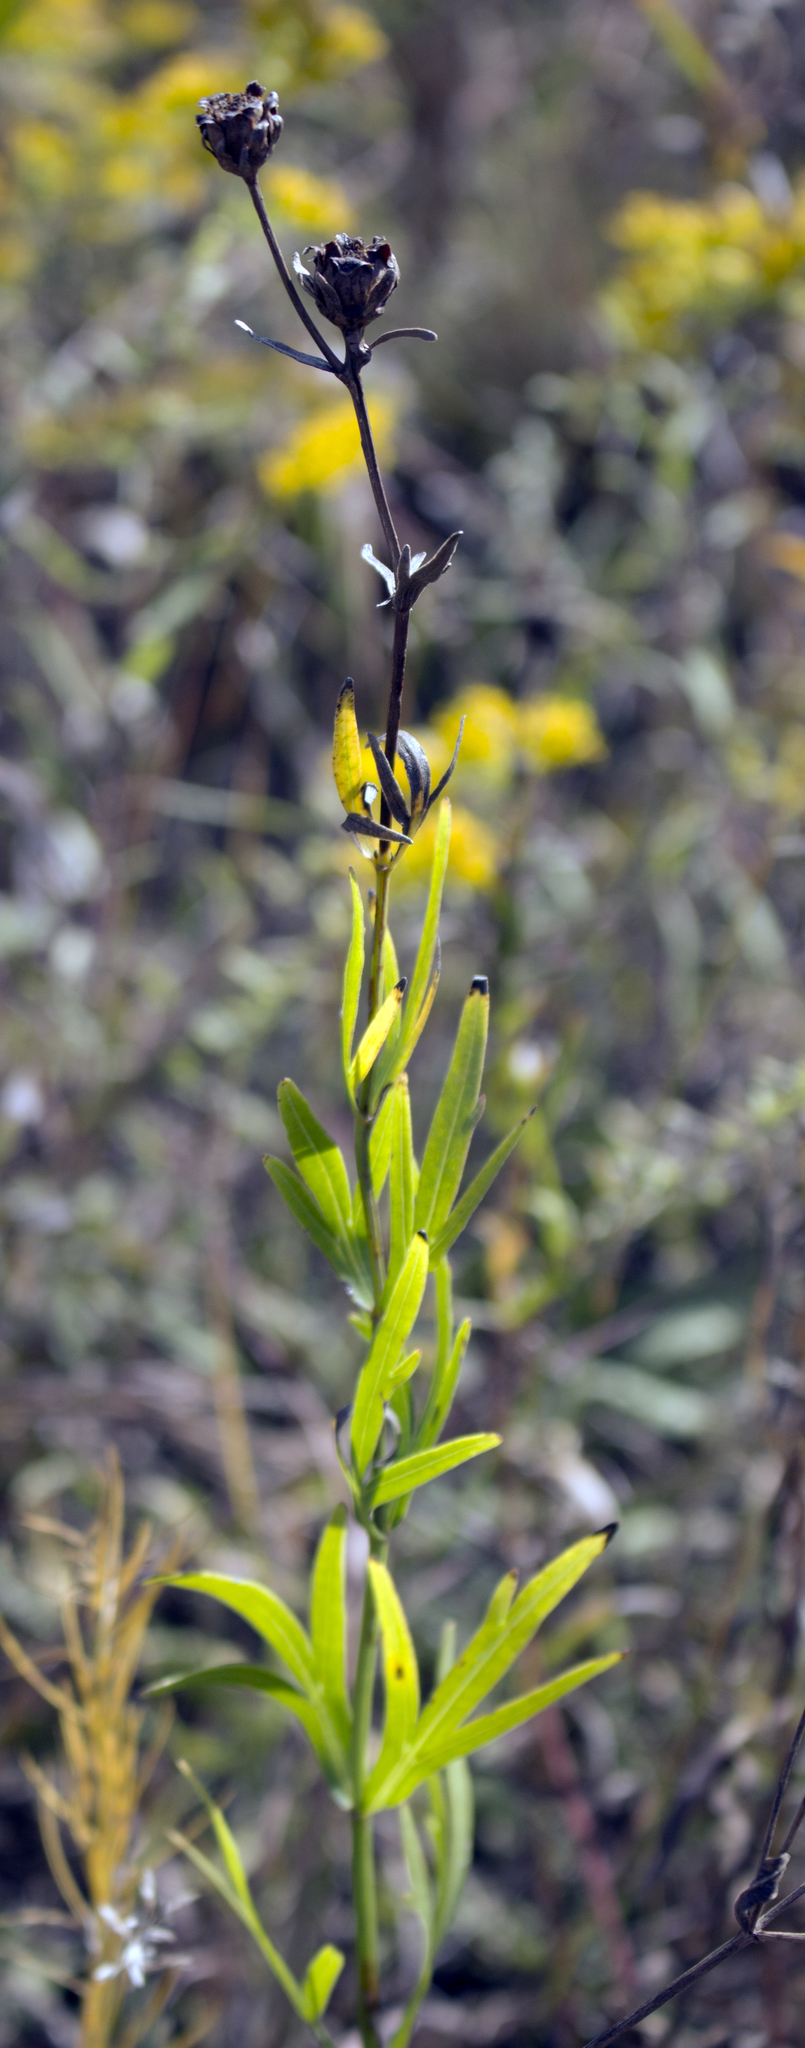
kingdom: Plantae
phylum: Tracheophyta
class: Magnoliopsida
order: Asterales
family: Asteraceae
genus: Coreopsis
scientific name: Coreopsis palmata
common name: Prairie coreopsis
